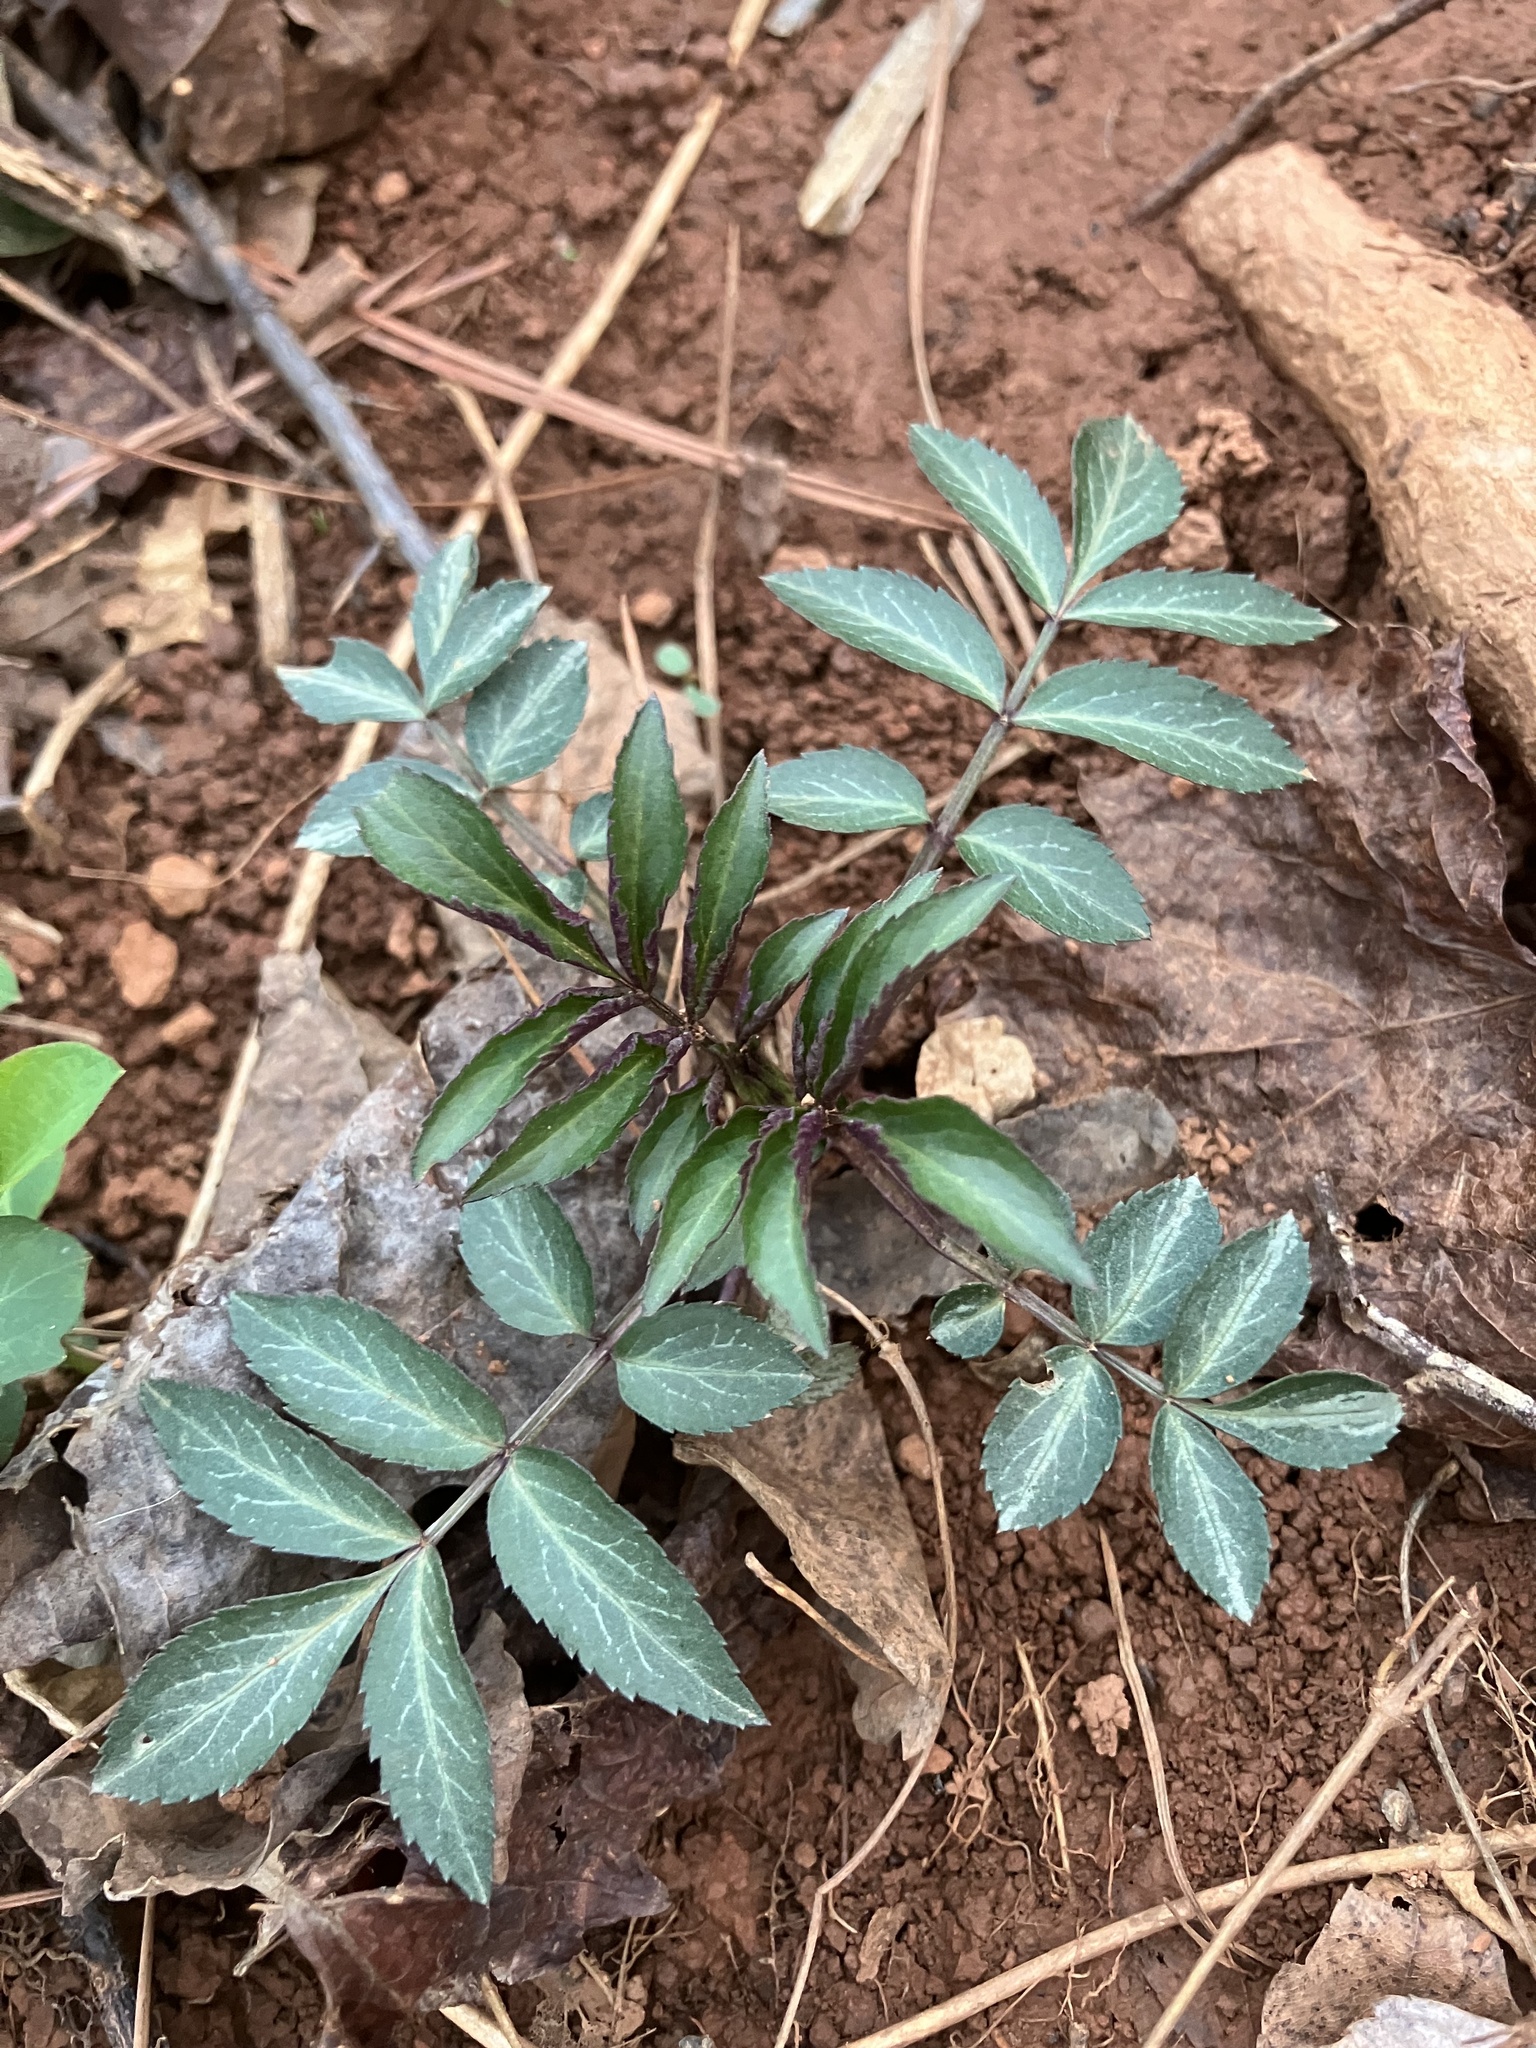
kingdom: Plantae
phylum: Tracheophyta
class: Magnoliopsida
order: Dipsacales
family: Viburnaceae
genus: Sambucus
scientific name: Sambucus canadensis
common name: American elder
